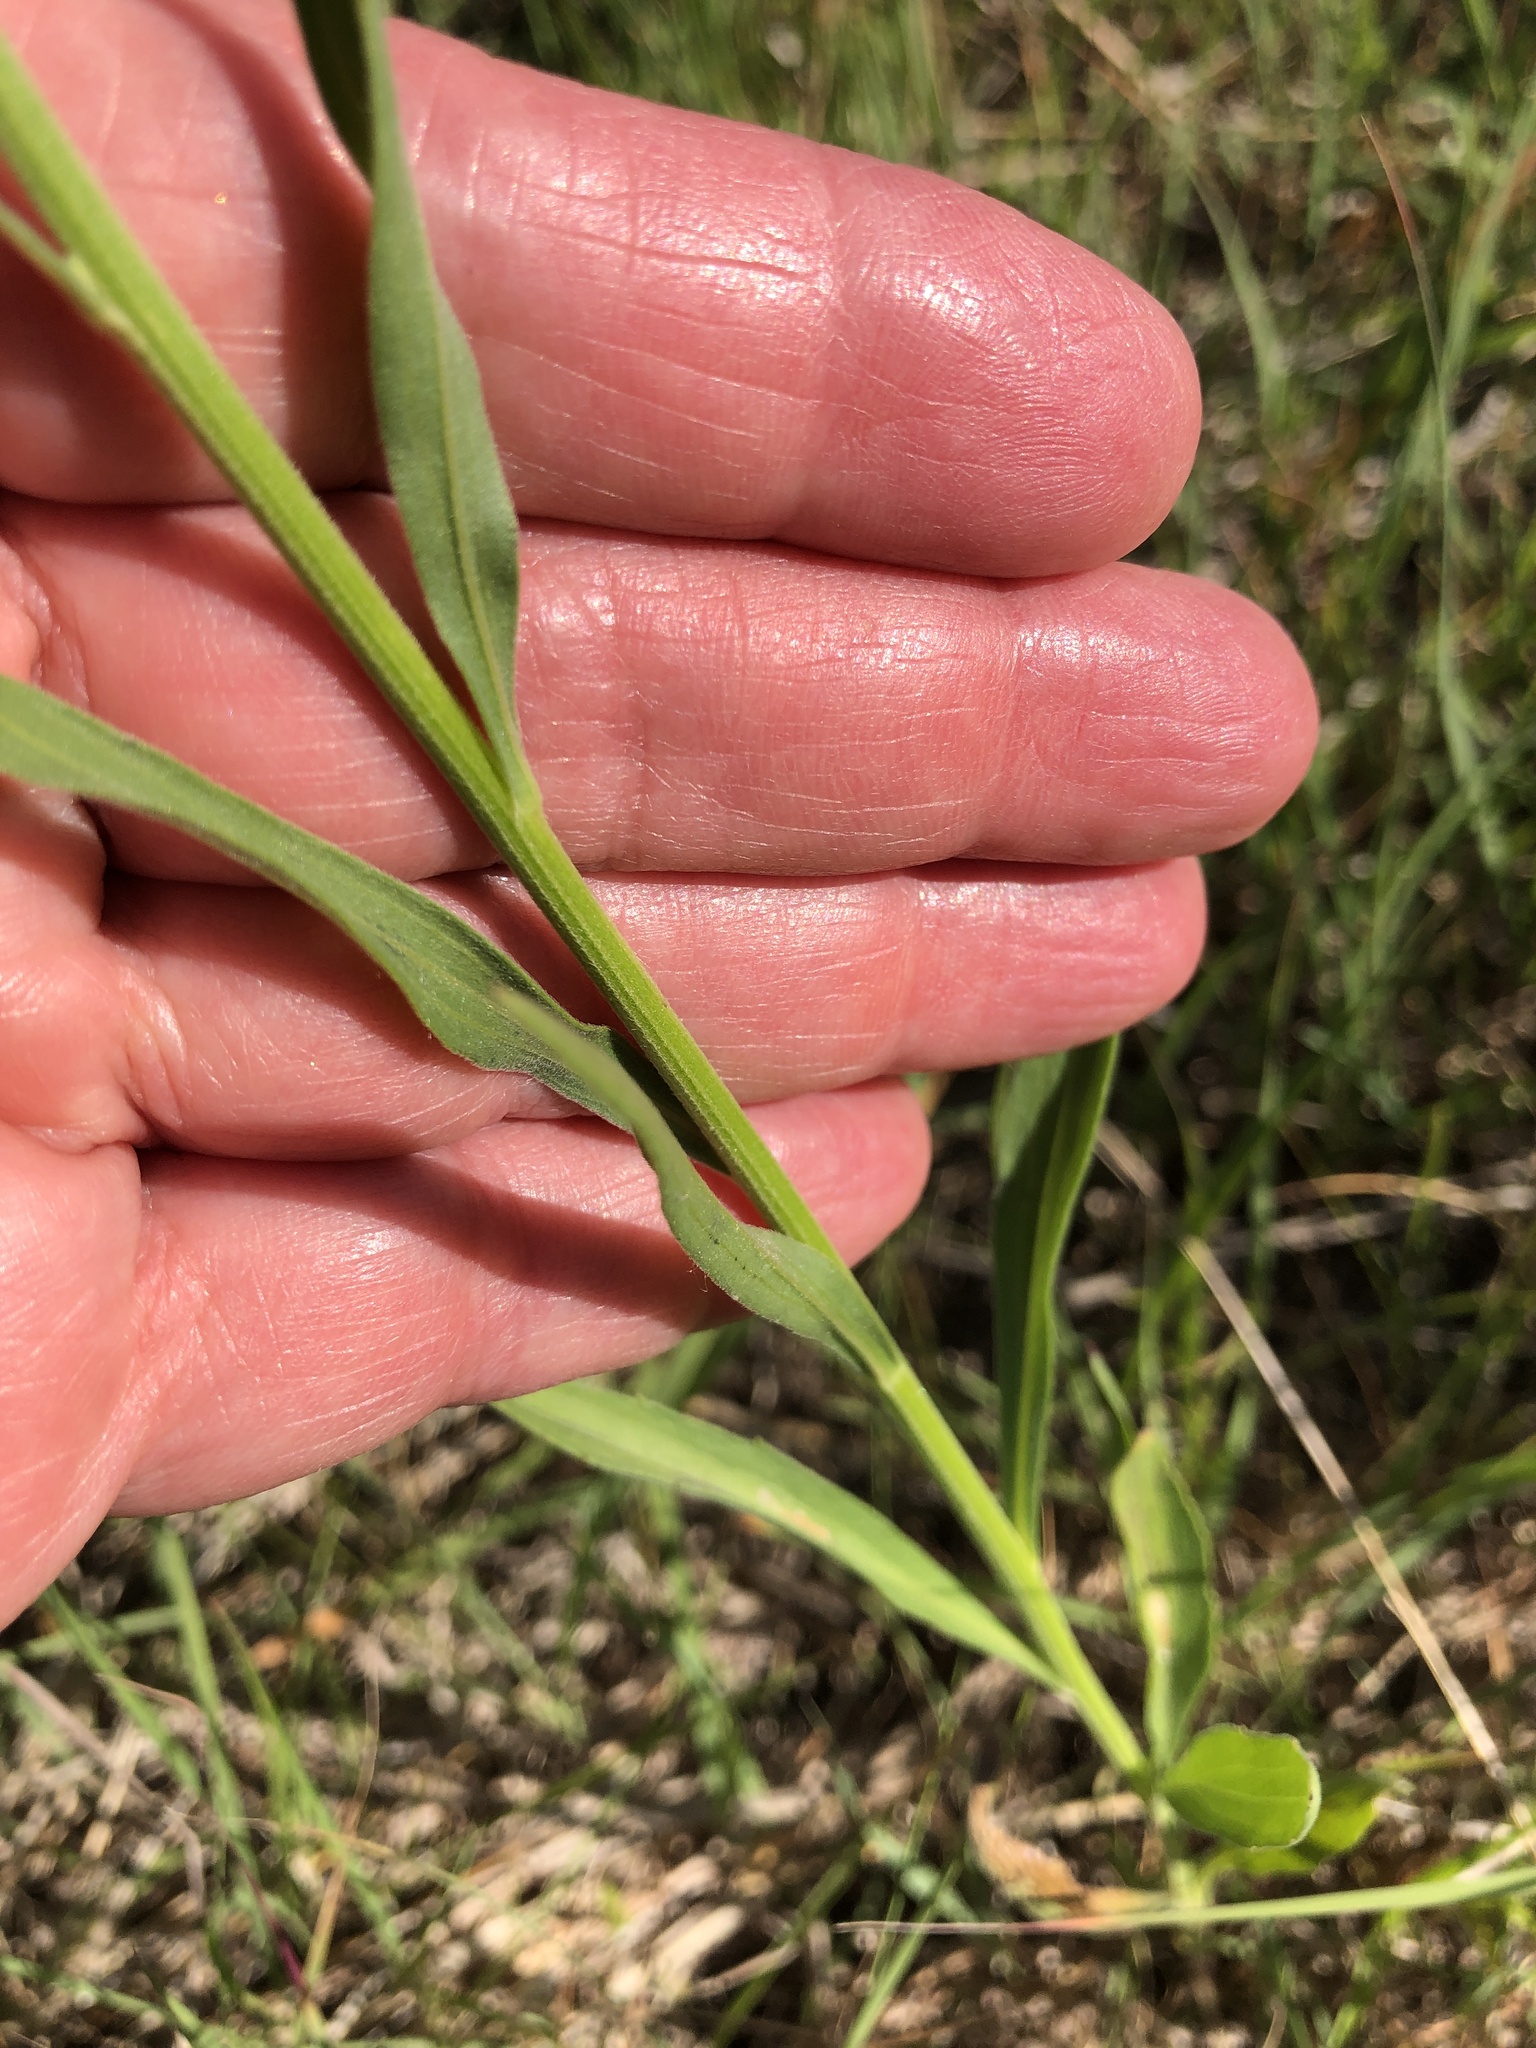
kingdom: Plantae
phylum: Tracheophyta
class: Magnoliopsida
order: Asterales
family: Asteraceae
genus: Erigeron
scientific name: Erigeron strigosus
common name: Common eastern fleabane
